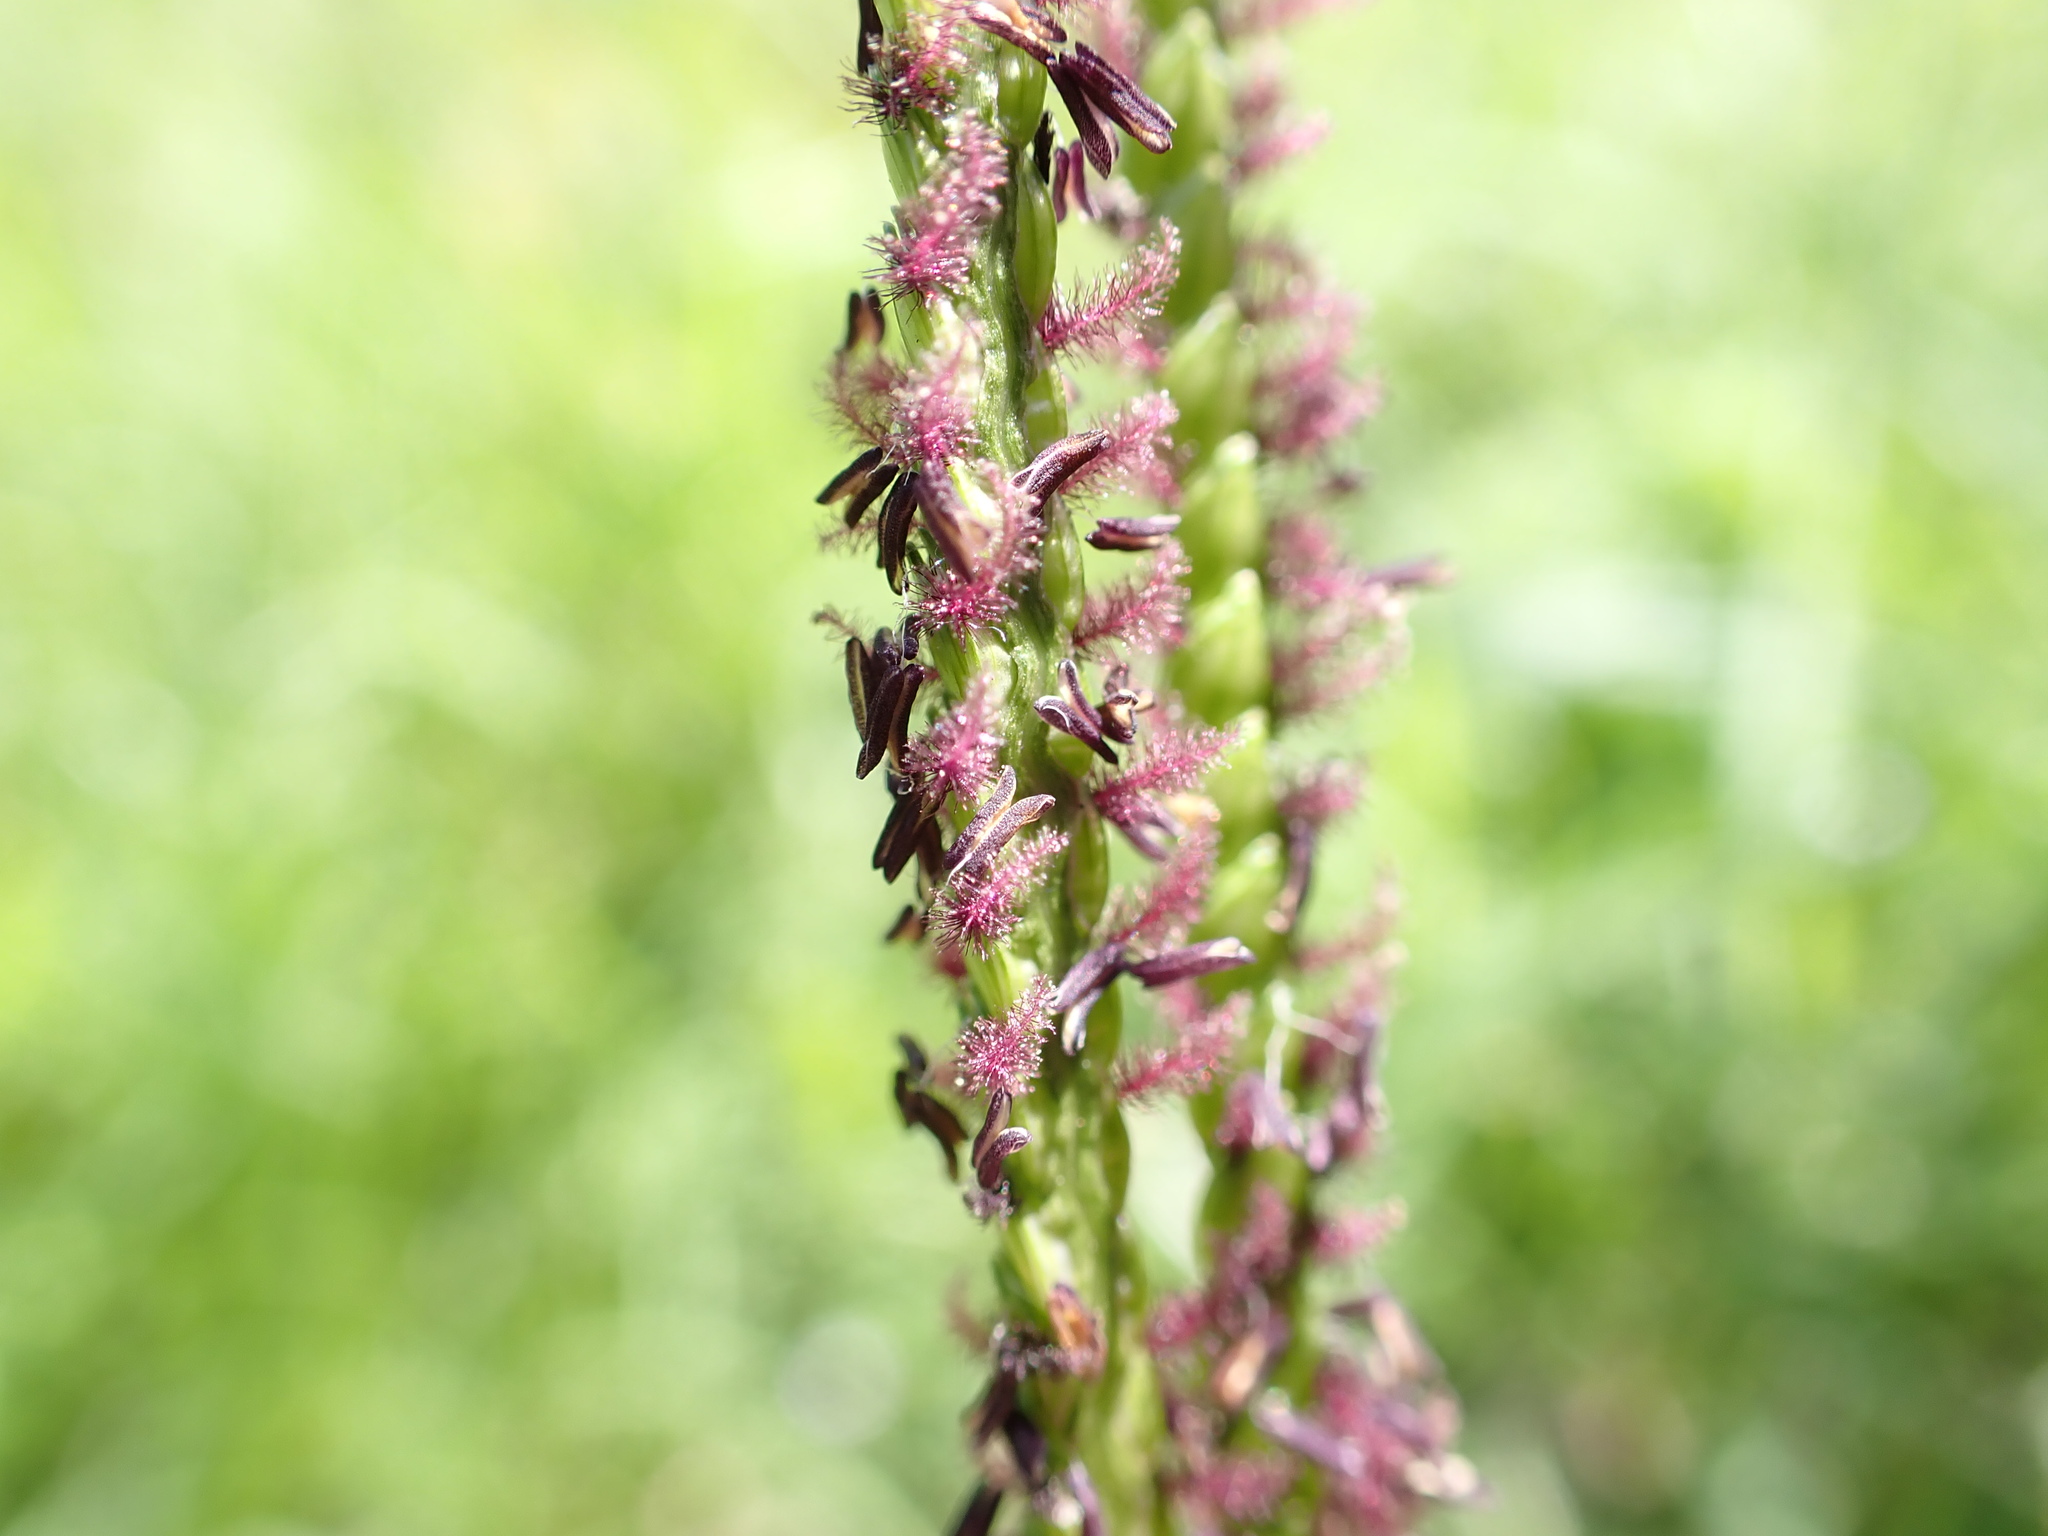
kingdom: Plantae
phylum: Tracheophyta
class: Liliopsida
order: Poales
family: Poaceae
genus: Paspalum
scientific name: Paspalum notatum
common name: Bahiagrass
